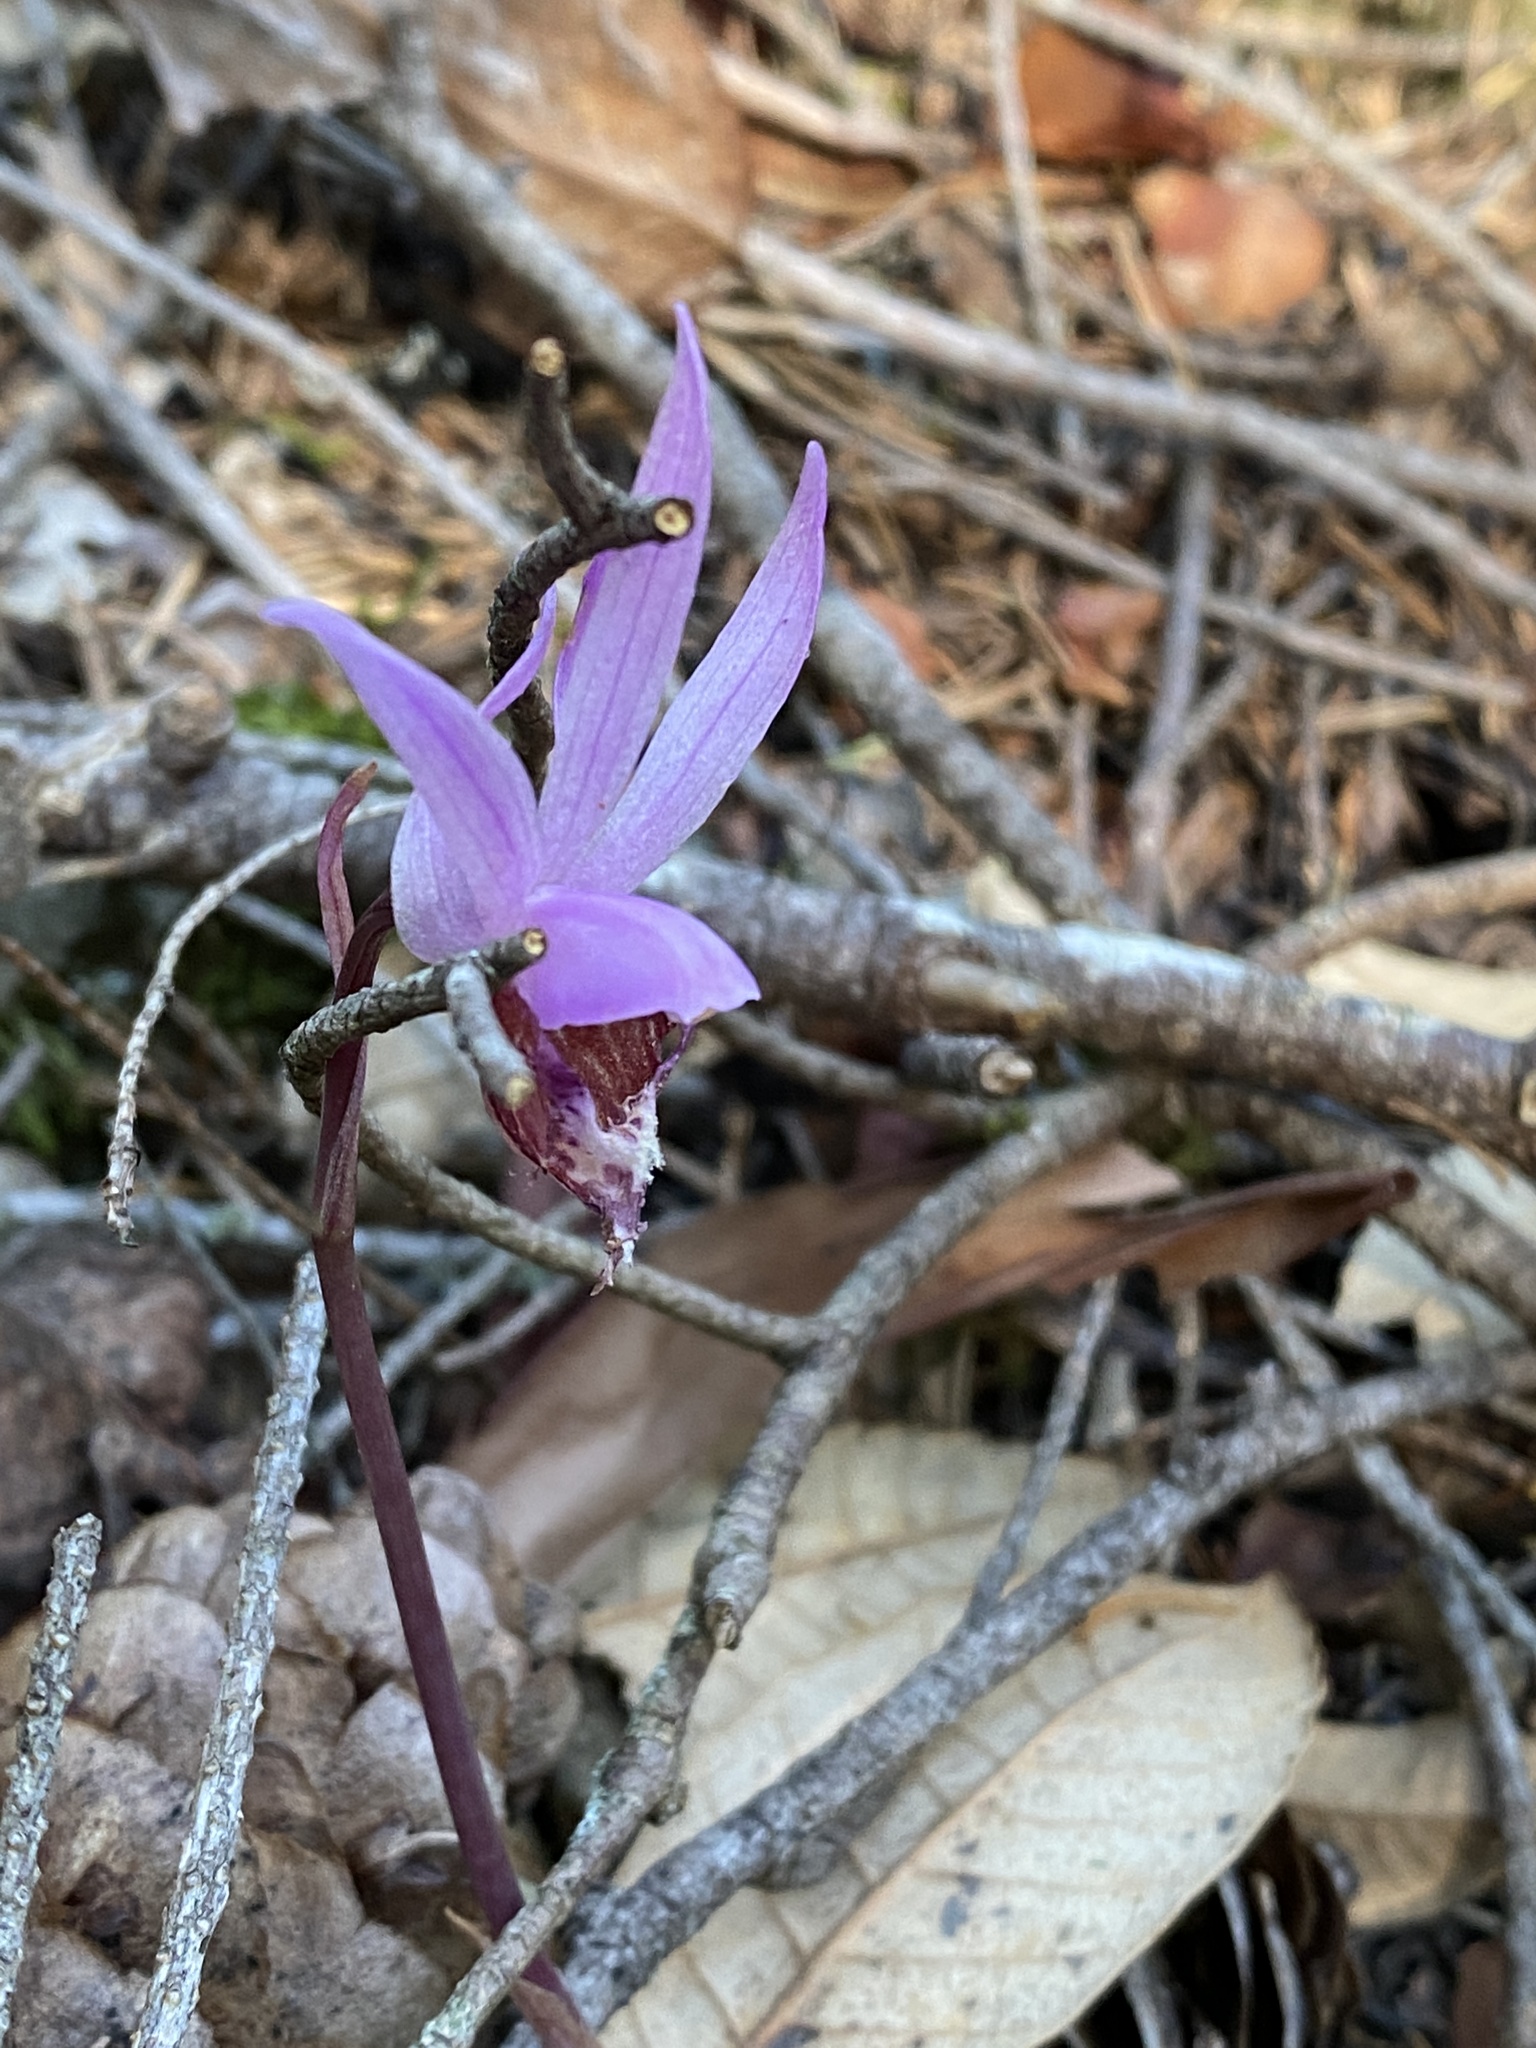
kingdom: Plantae
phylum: Tracheophyta
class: Liliopsida
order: Asparagales
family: Orchidaceae
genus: Calypso
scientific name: Calypso bulbosa
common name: Calypso
